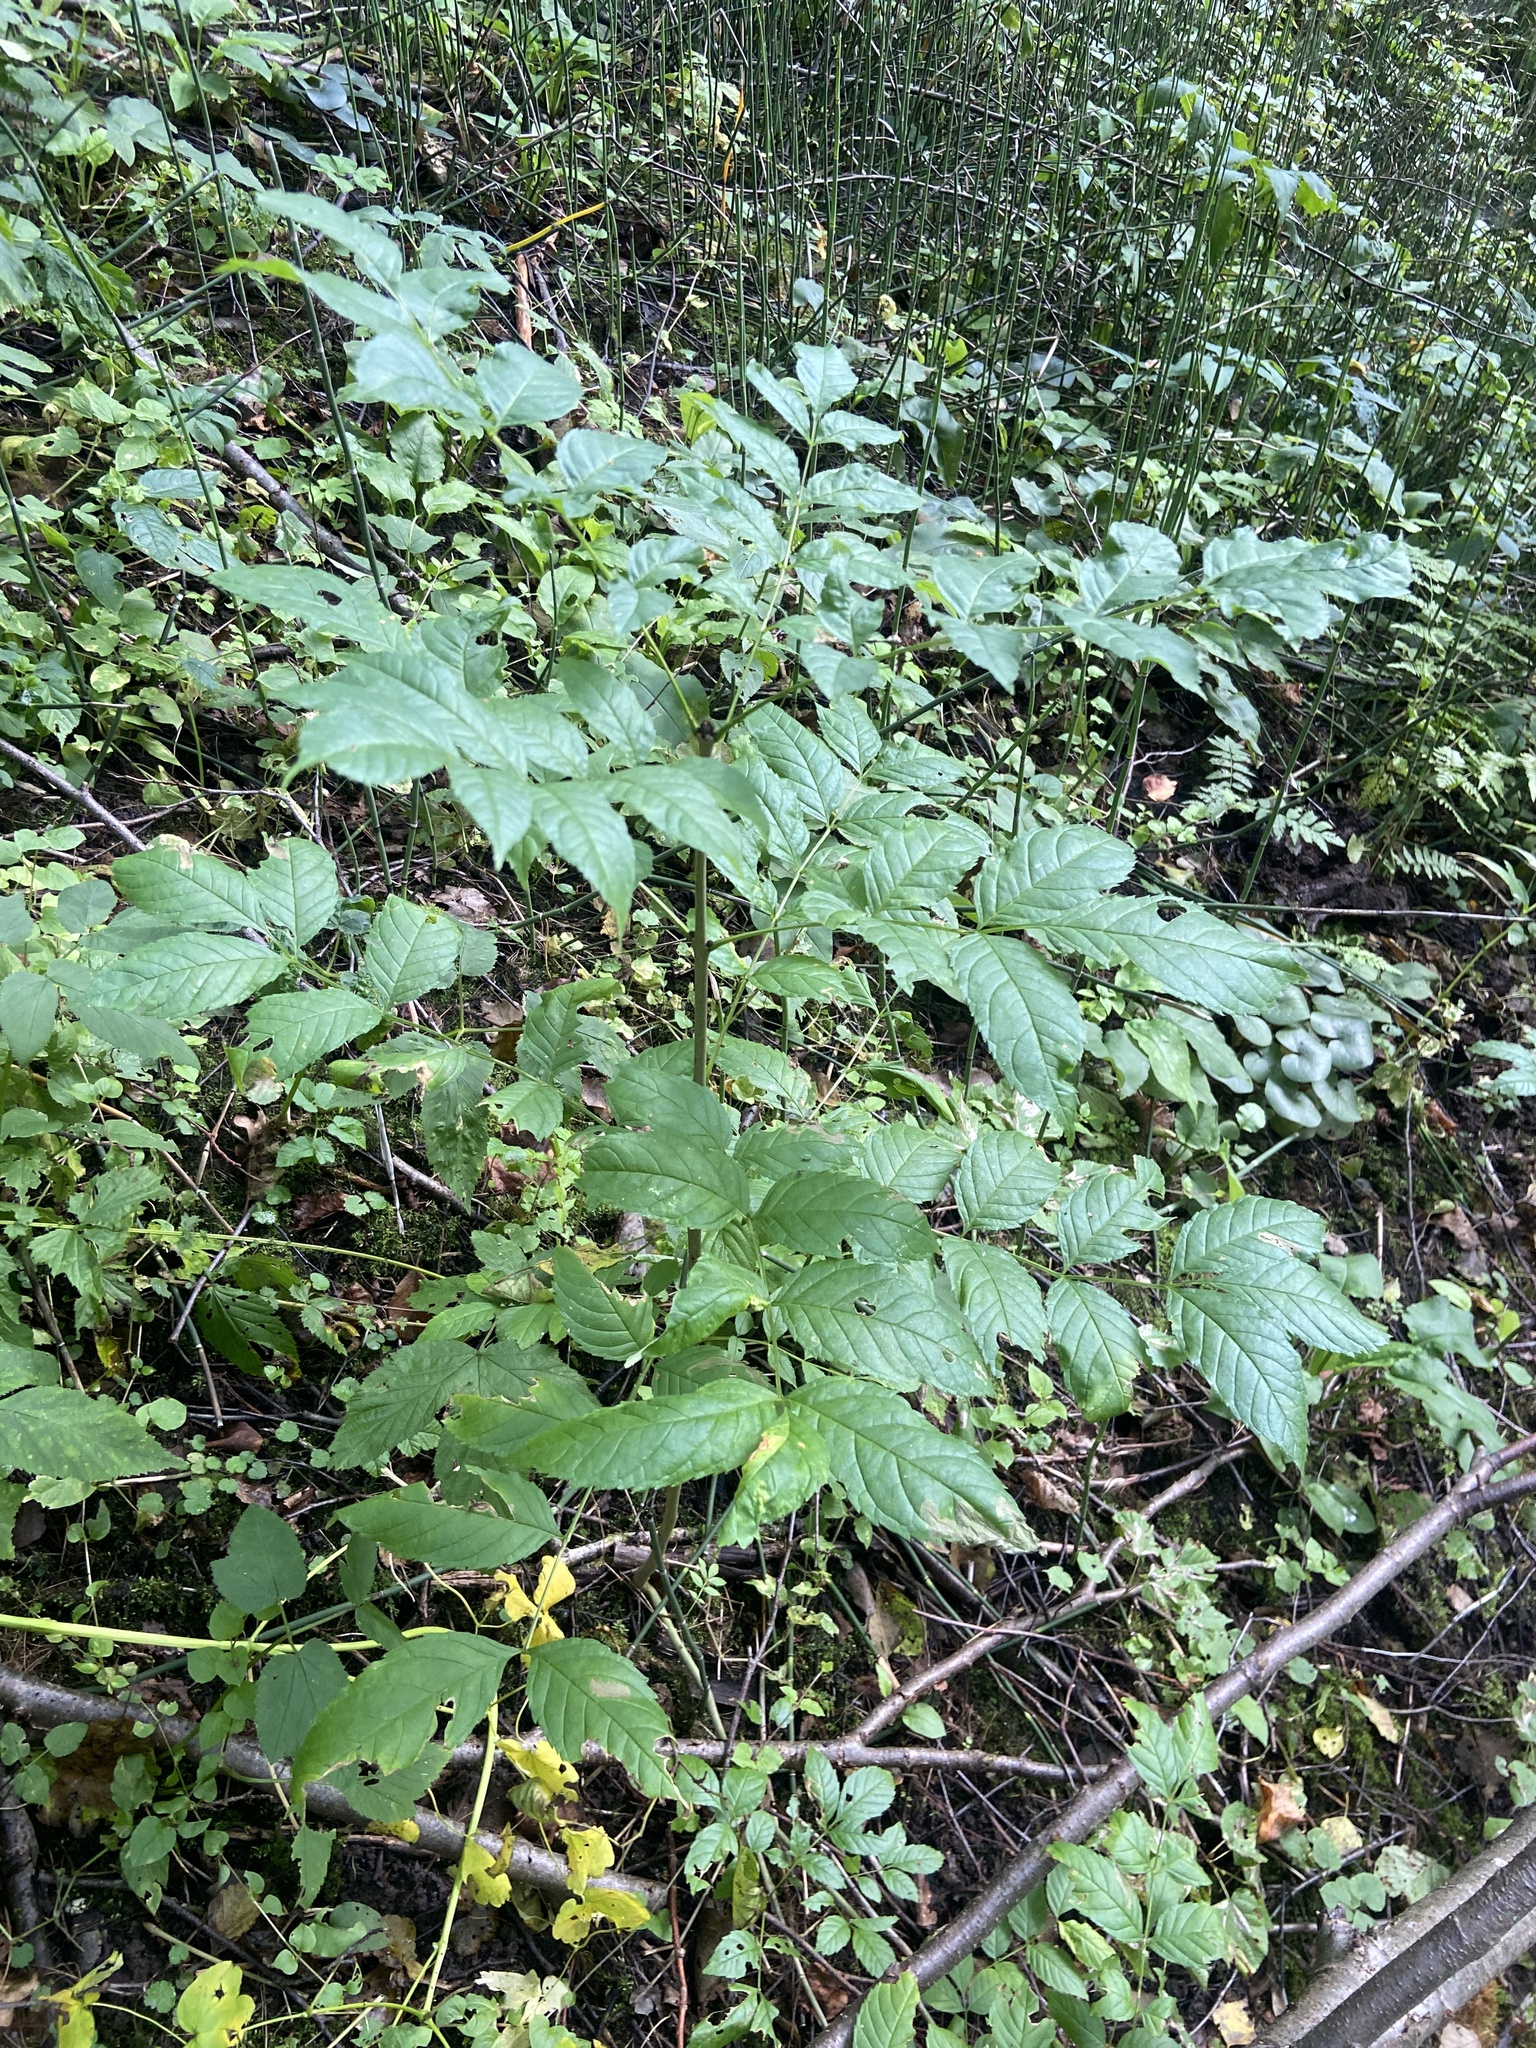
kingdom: Plantae
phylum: Tracheophyta
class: Magnoliopsida
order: Lamiales
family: Oleaceae
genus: Fraxinus
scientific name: Fraxinus excelsior
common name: European ash
